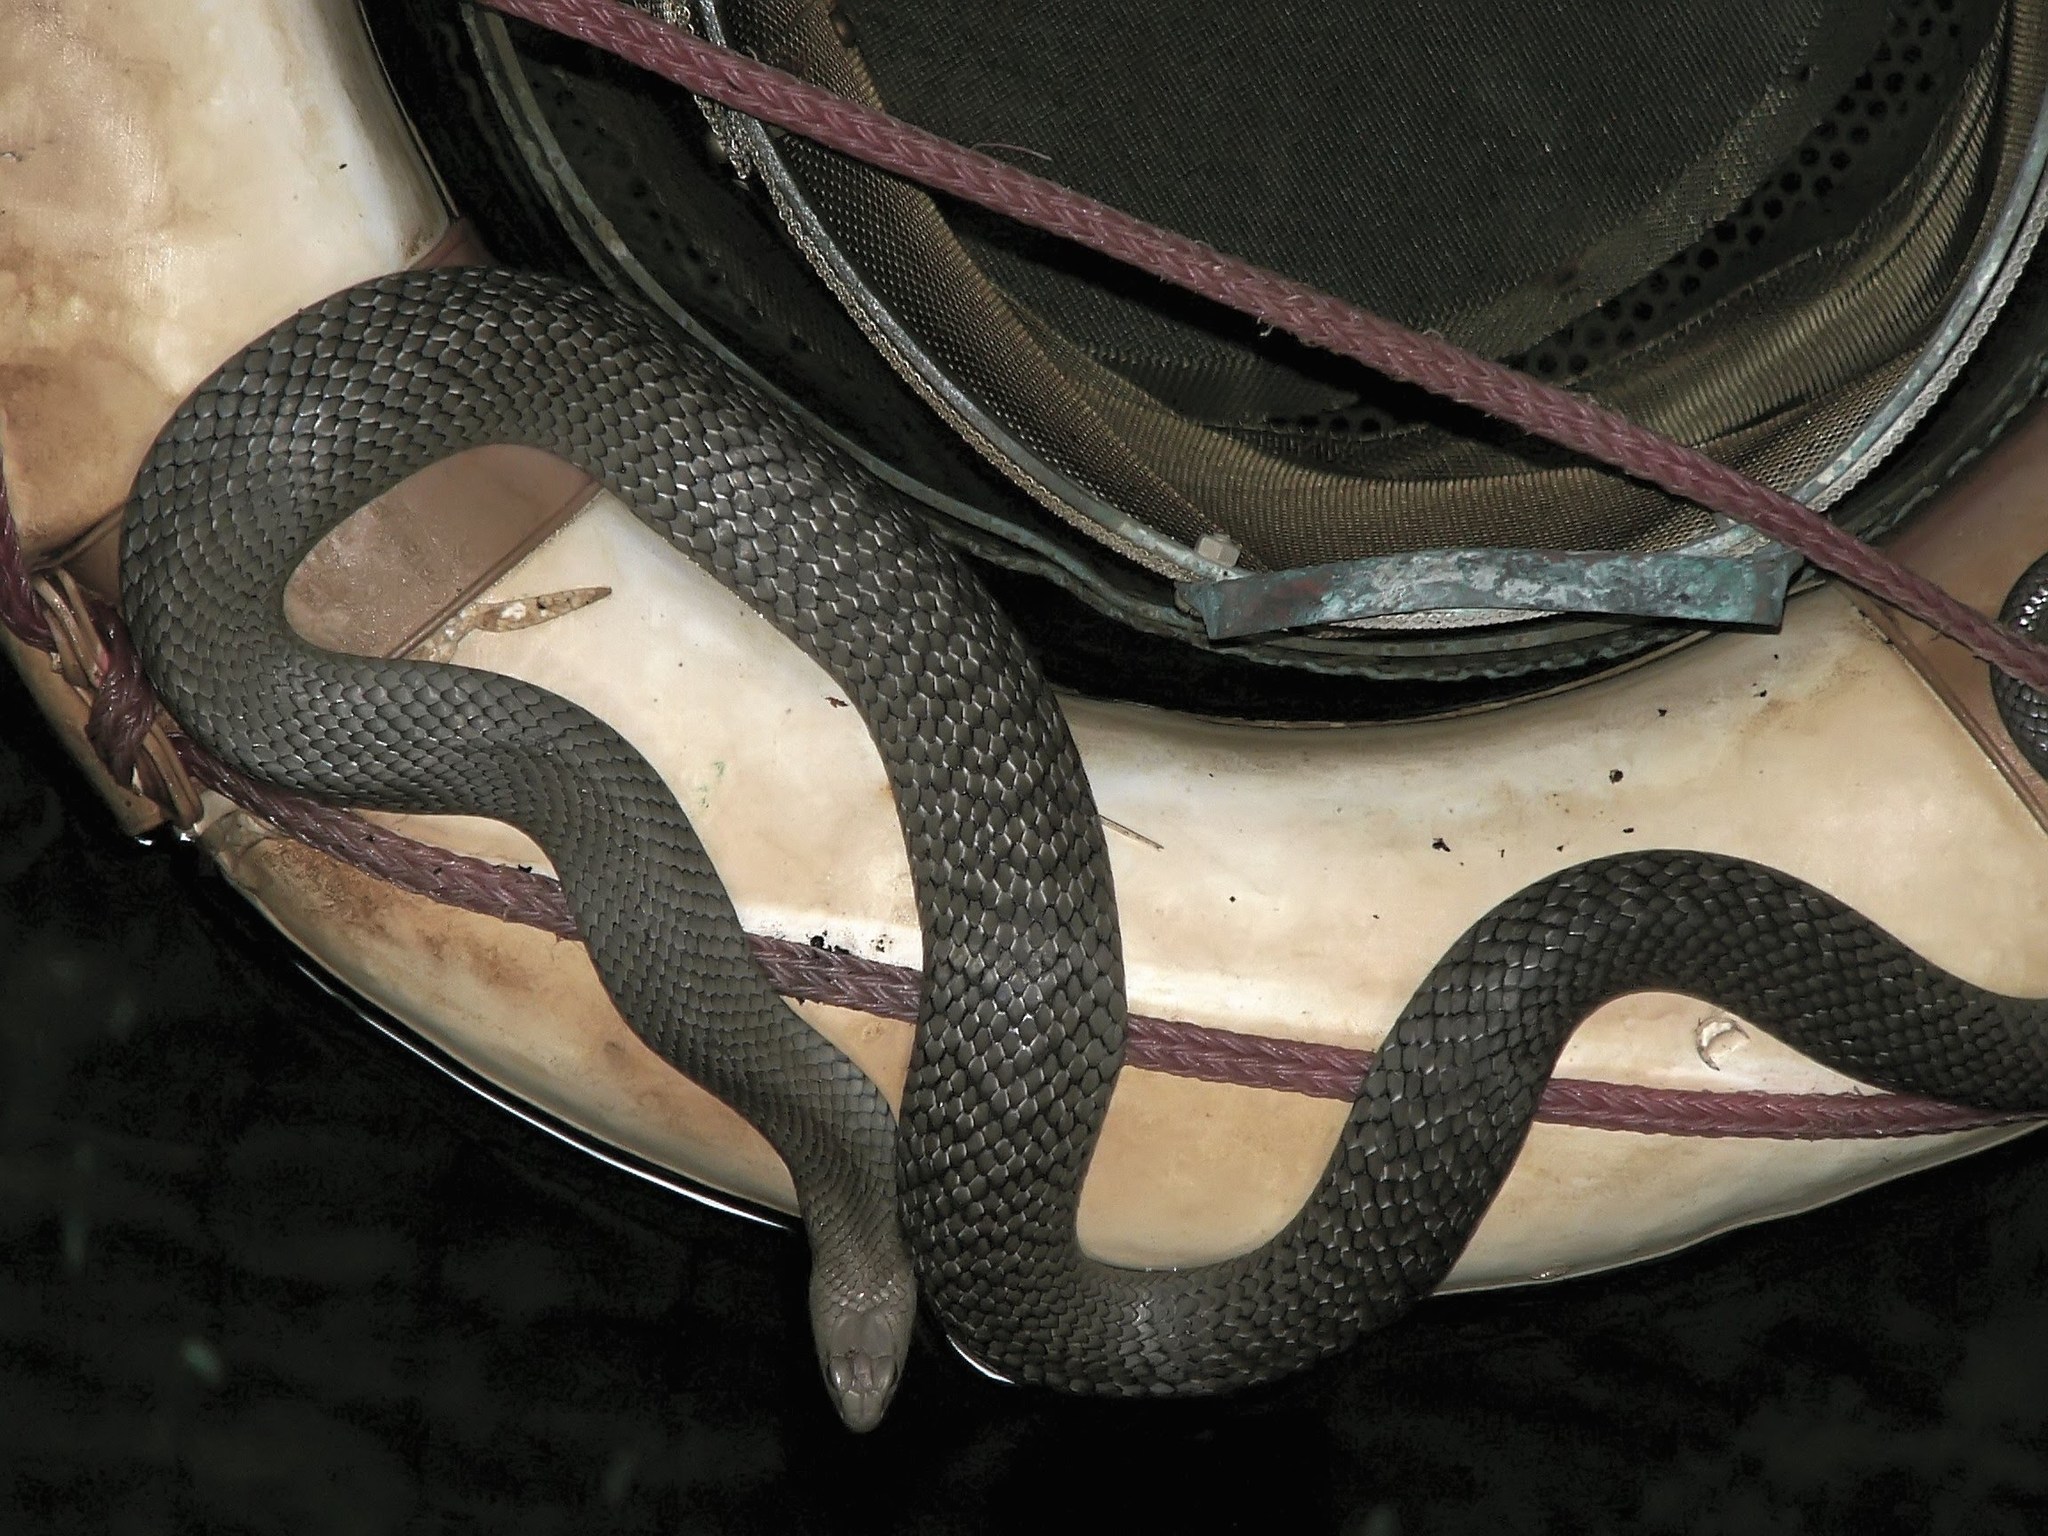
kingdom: Animalia
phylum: Chordata
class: Squamata
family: Elapidae
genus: Pseudonaja
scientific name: Pseudonaja textilis
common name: Eastern brown snake
